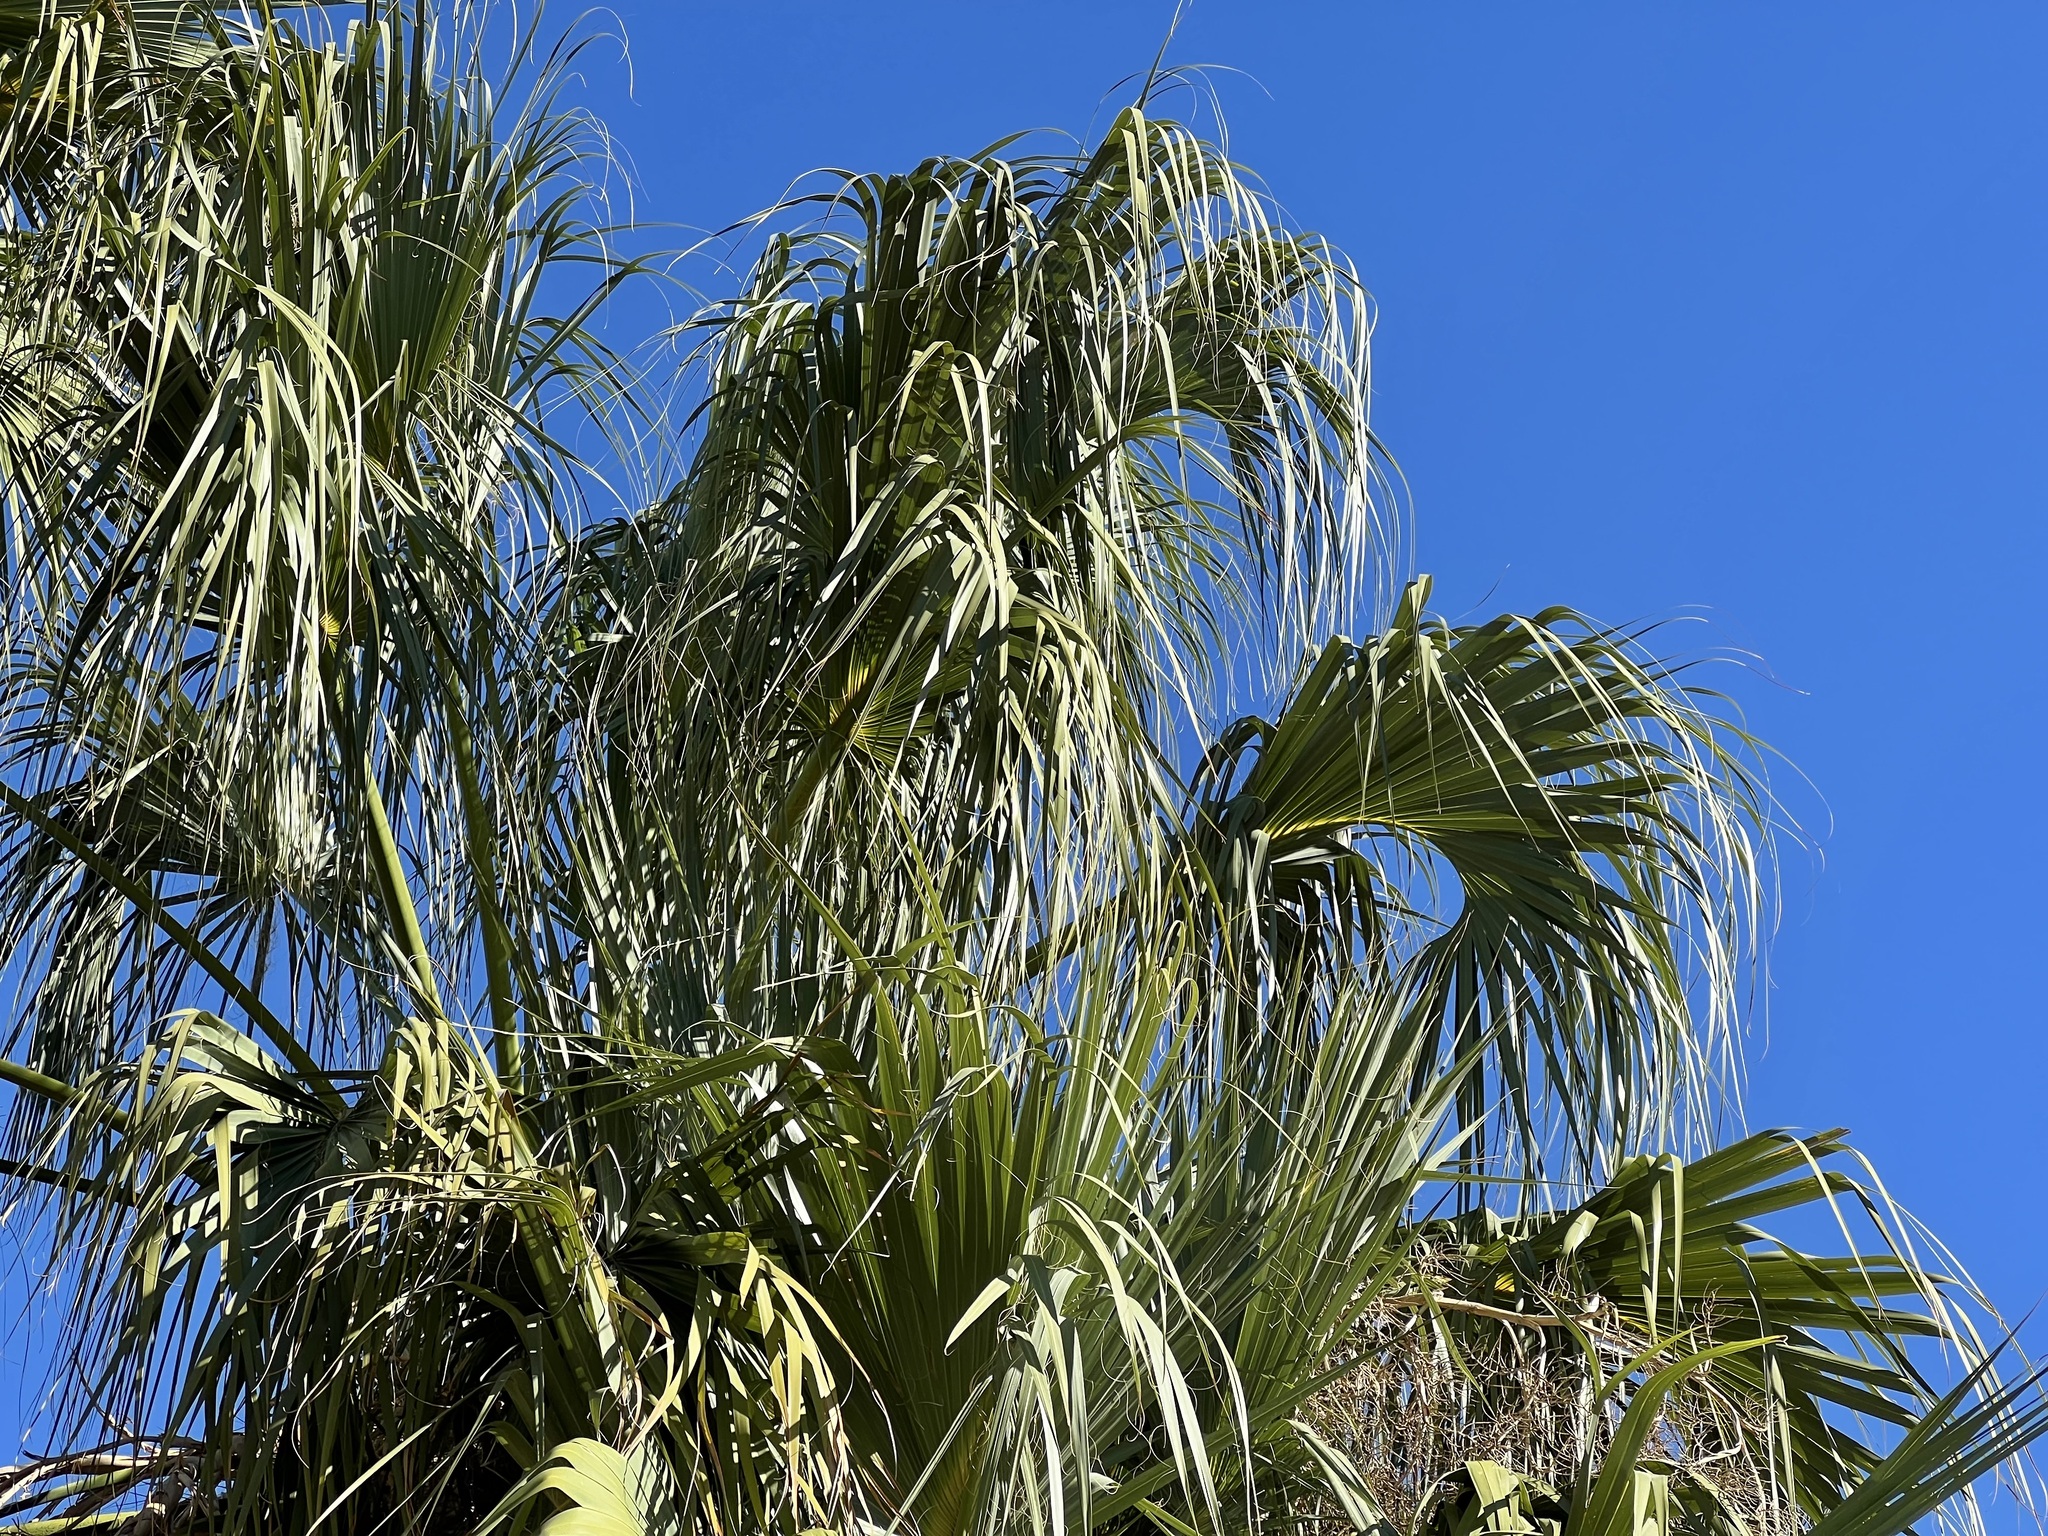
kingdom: Plantae
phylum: Tracheophyta
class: Liliopsida
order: Arecales
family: Arecaceae
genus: Sabal
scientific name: Sabal uresana
